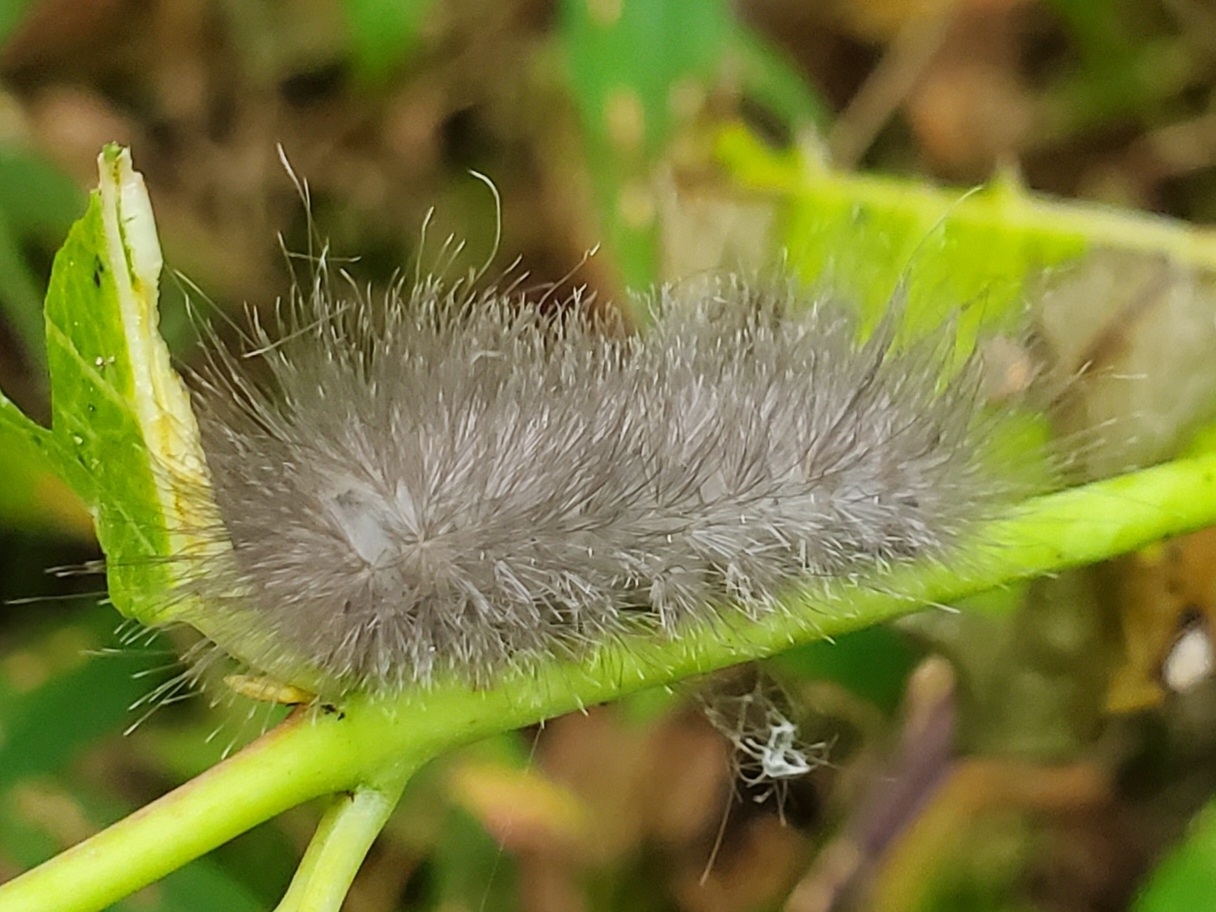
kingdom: Animalia
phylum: Arthropoda
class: Insecta
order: Lepidoptera
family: Erebidae
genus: Cycnia
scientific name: Cycnia tenera
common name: Delicate cycnia moth
